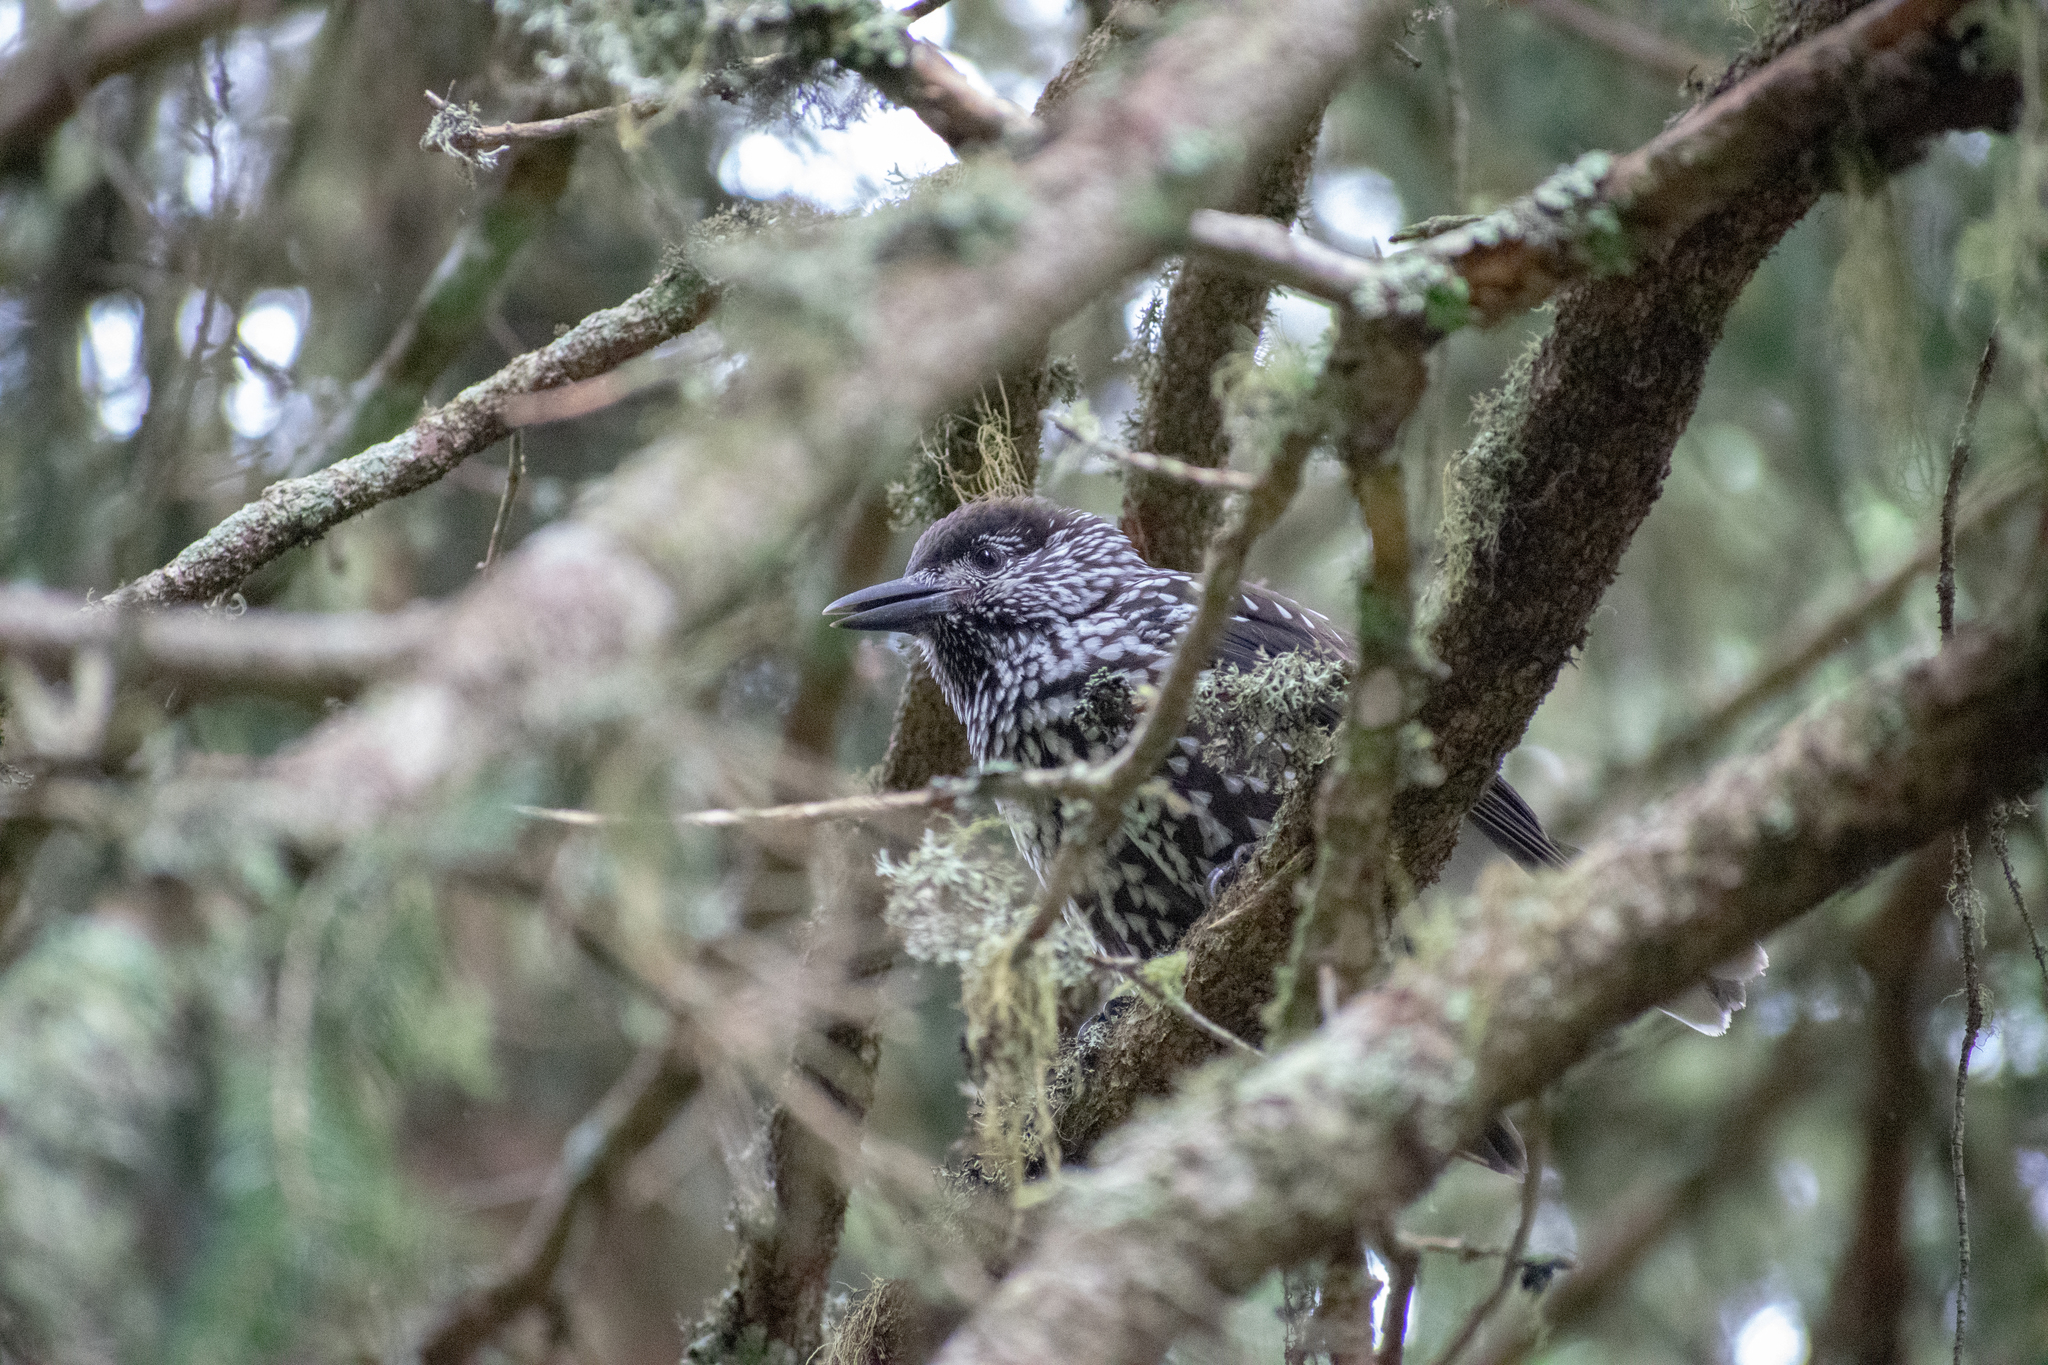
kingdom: Animalia
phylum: Chordata
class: Aves
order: Passeriformes
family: Corvidae
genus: Nucifraga
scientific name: Nucifraga caryocatactes
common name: Spotted nutcracker
